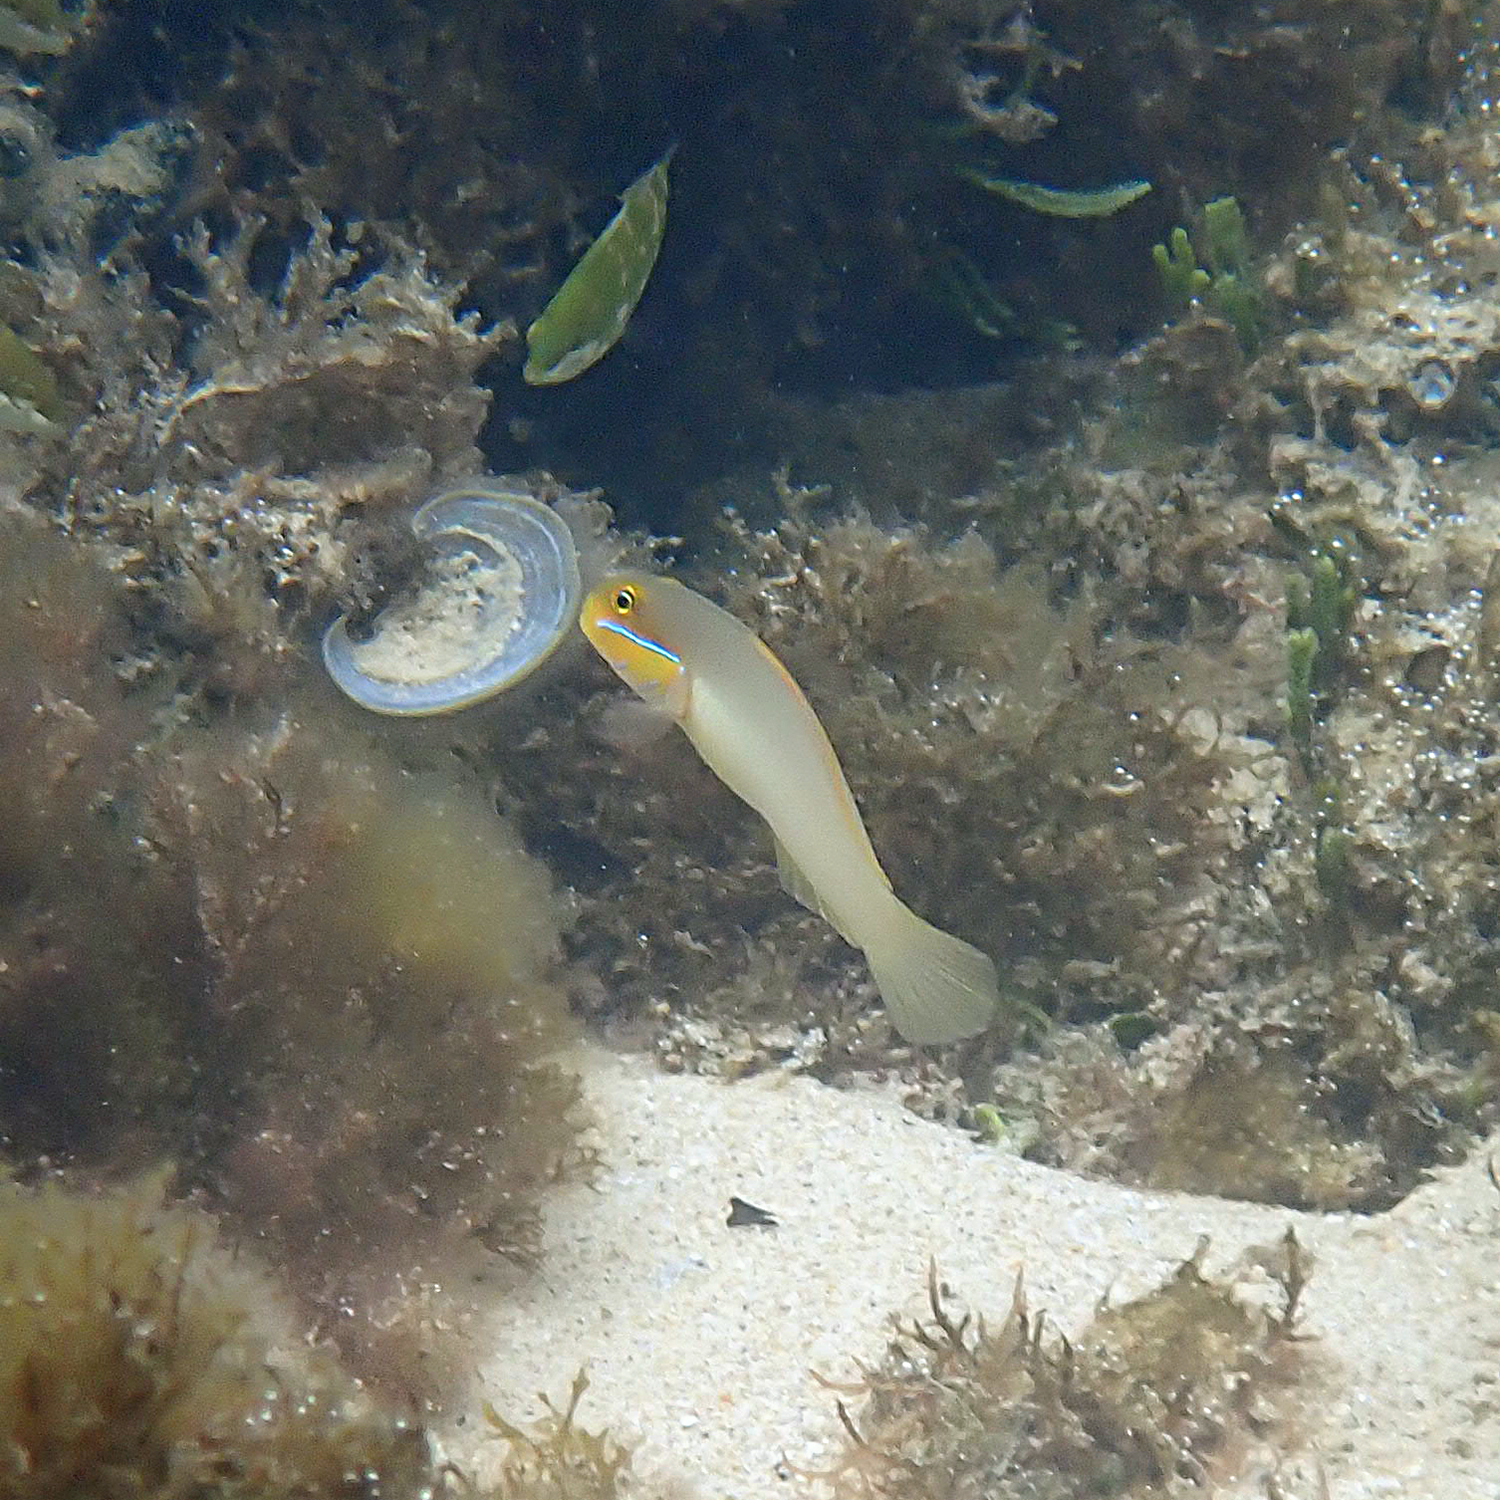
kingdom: Animalia
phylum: Chordata
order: Perciformes
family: Gobiidae
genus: Valenciennea
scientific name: Valenciennea strigata
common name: Blueband goby
